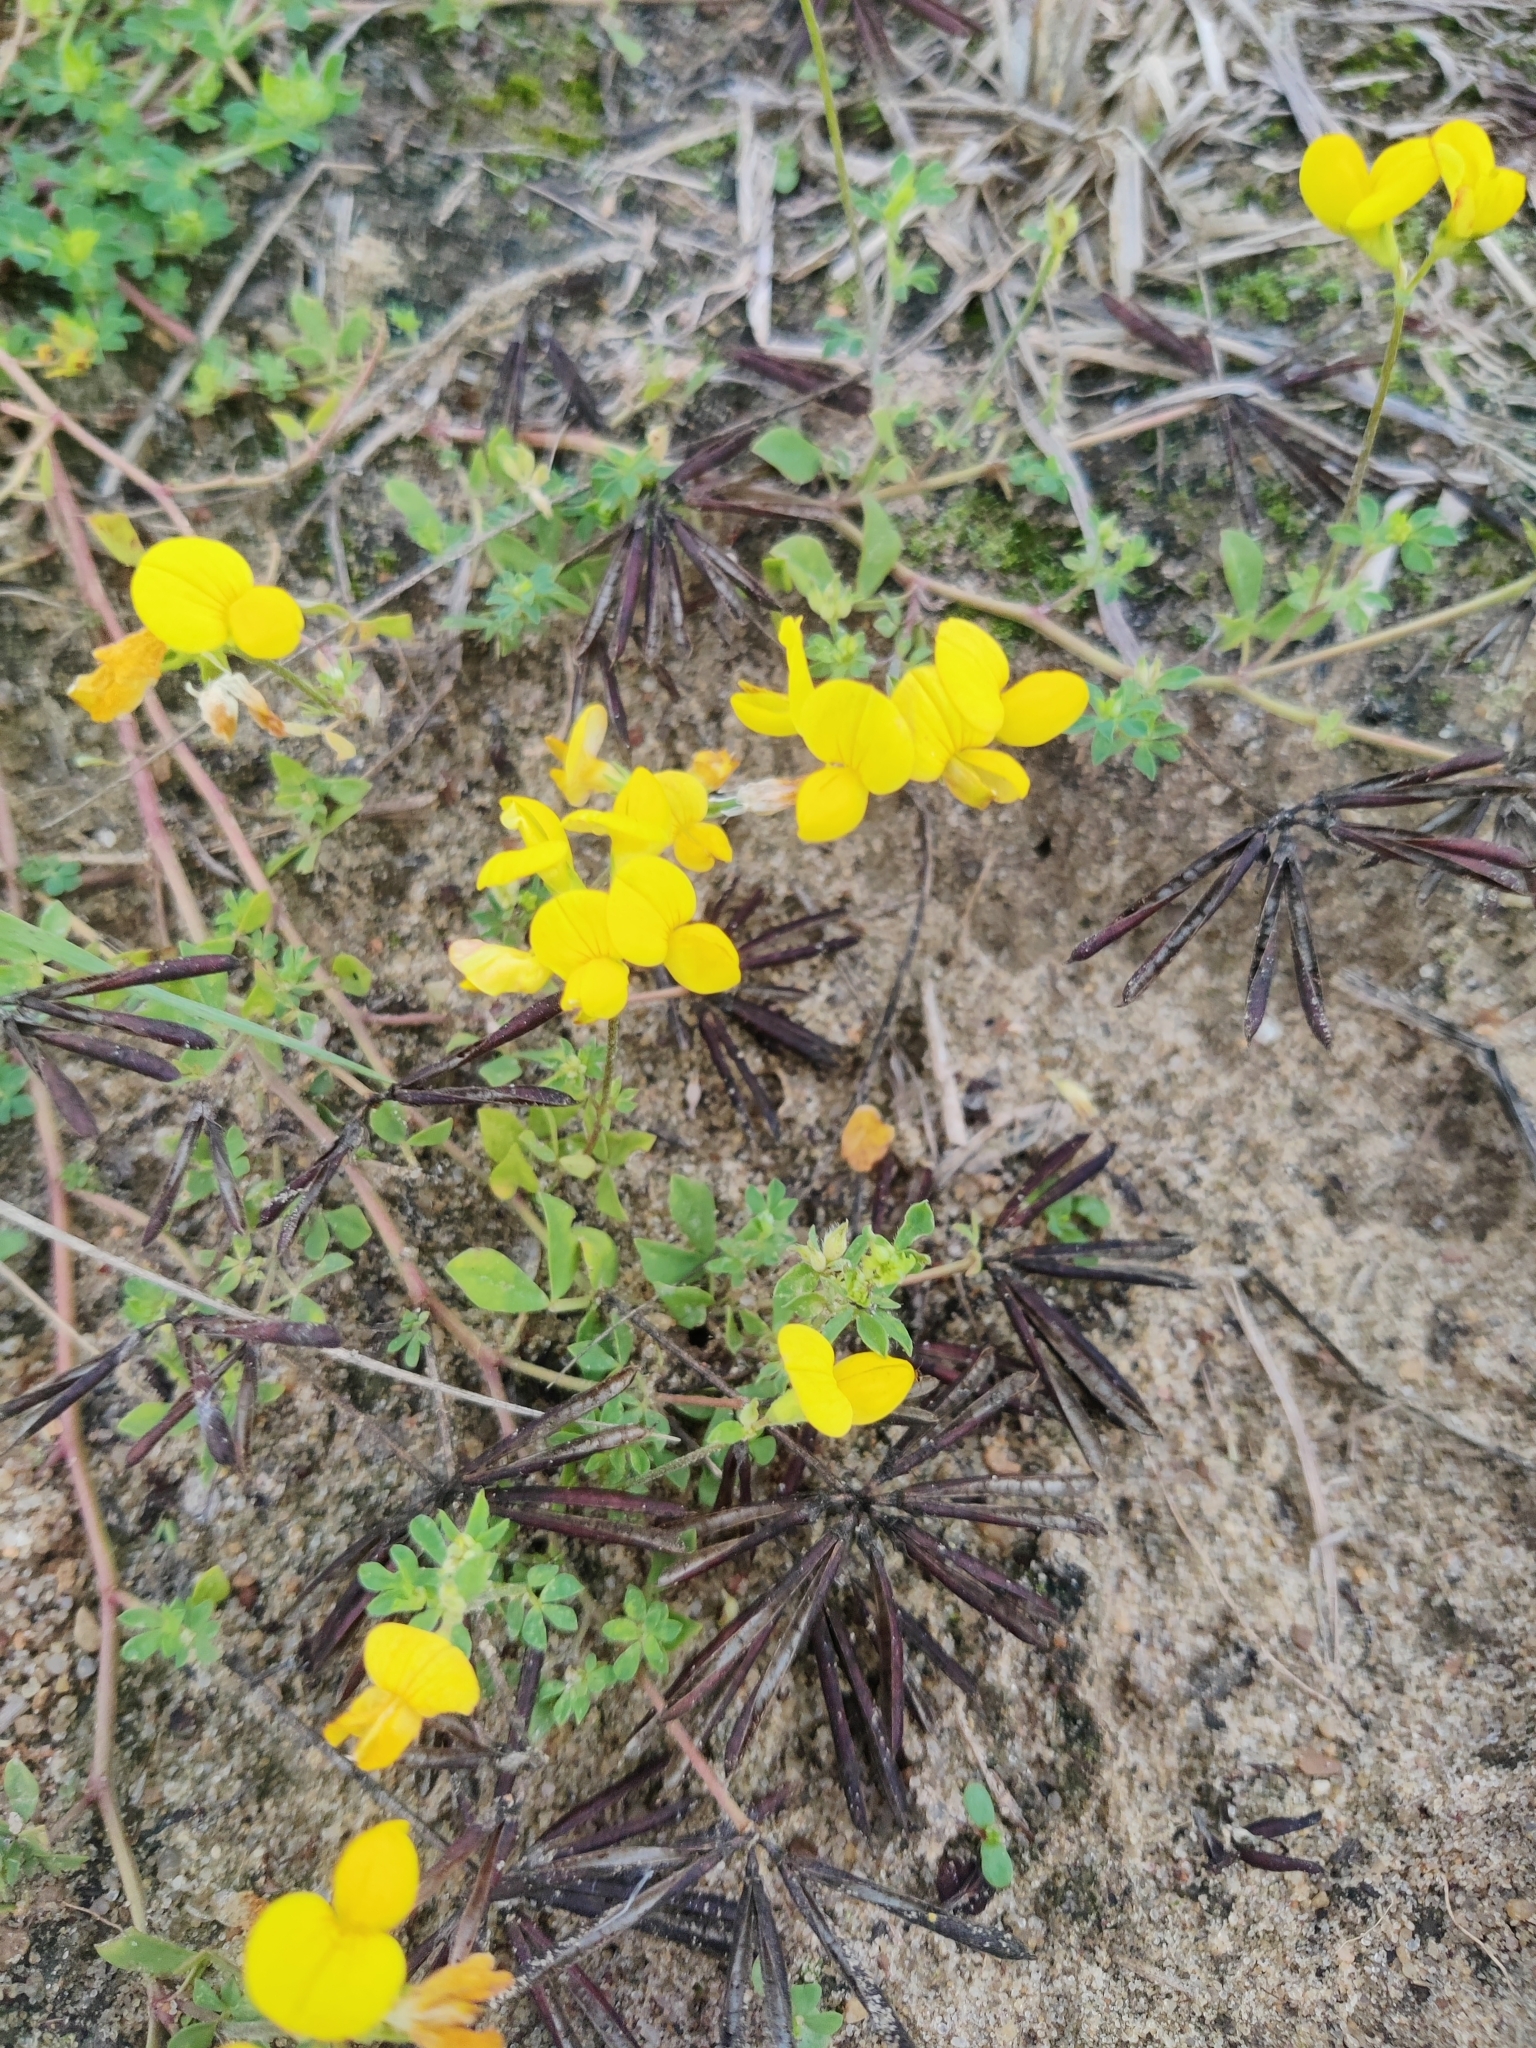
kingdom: Plantae
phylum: Tracheophyta
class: Magnoliopsida
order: Fabales
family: Fabaceae
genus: Lotus
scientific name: Lotus corniculatus
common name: Common bird's-foot-trefoil
